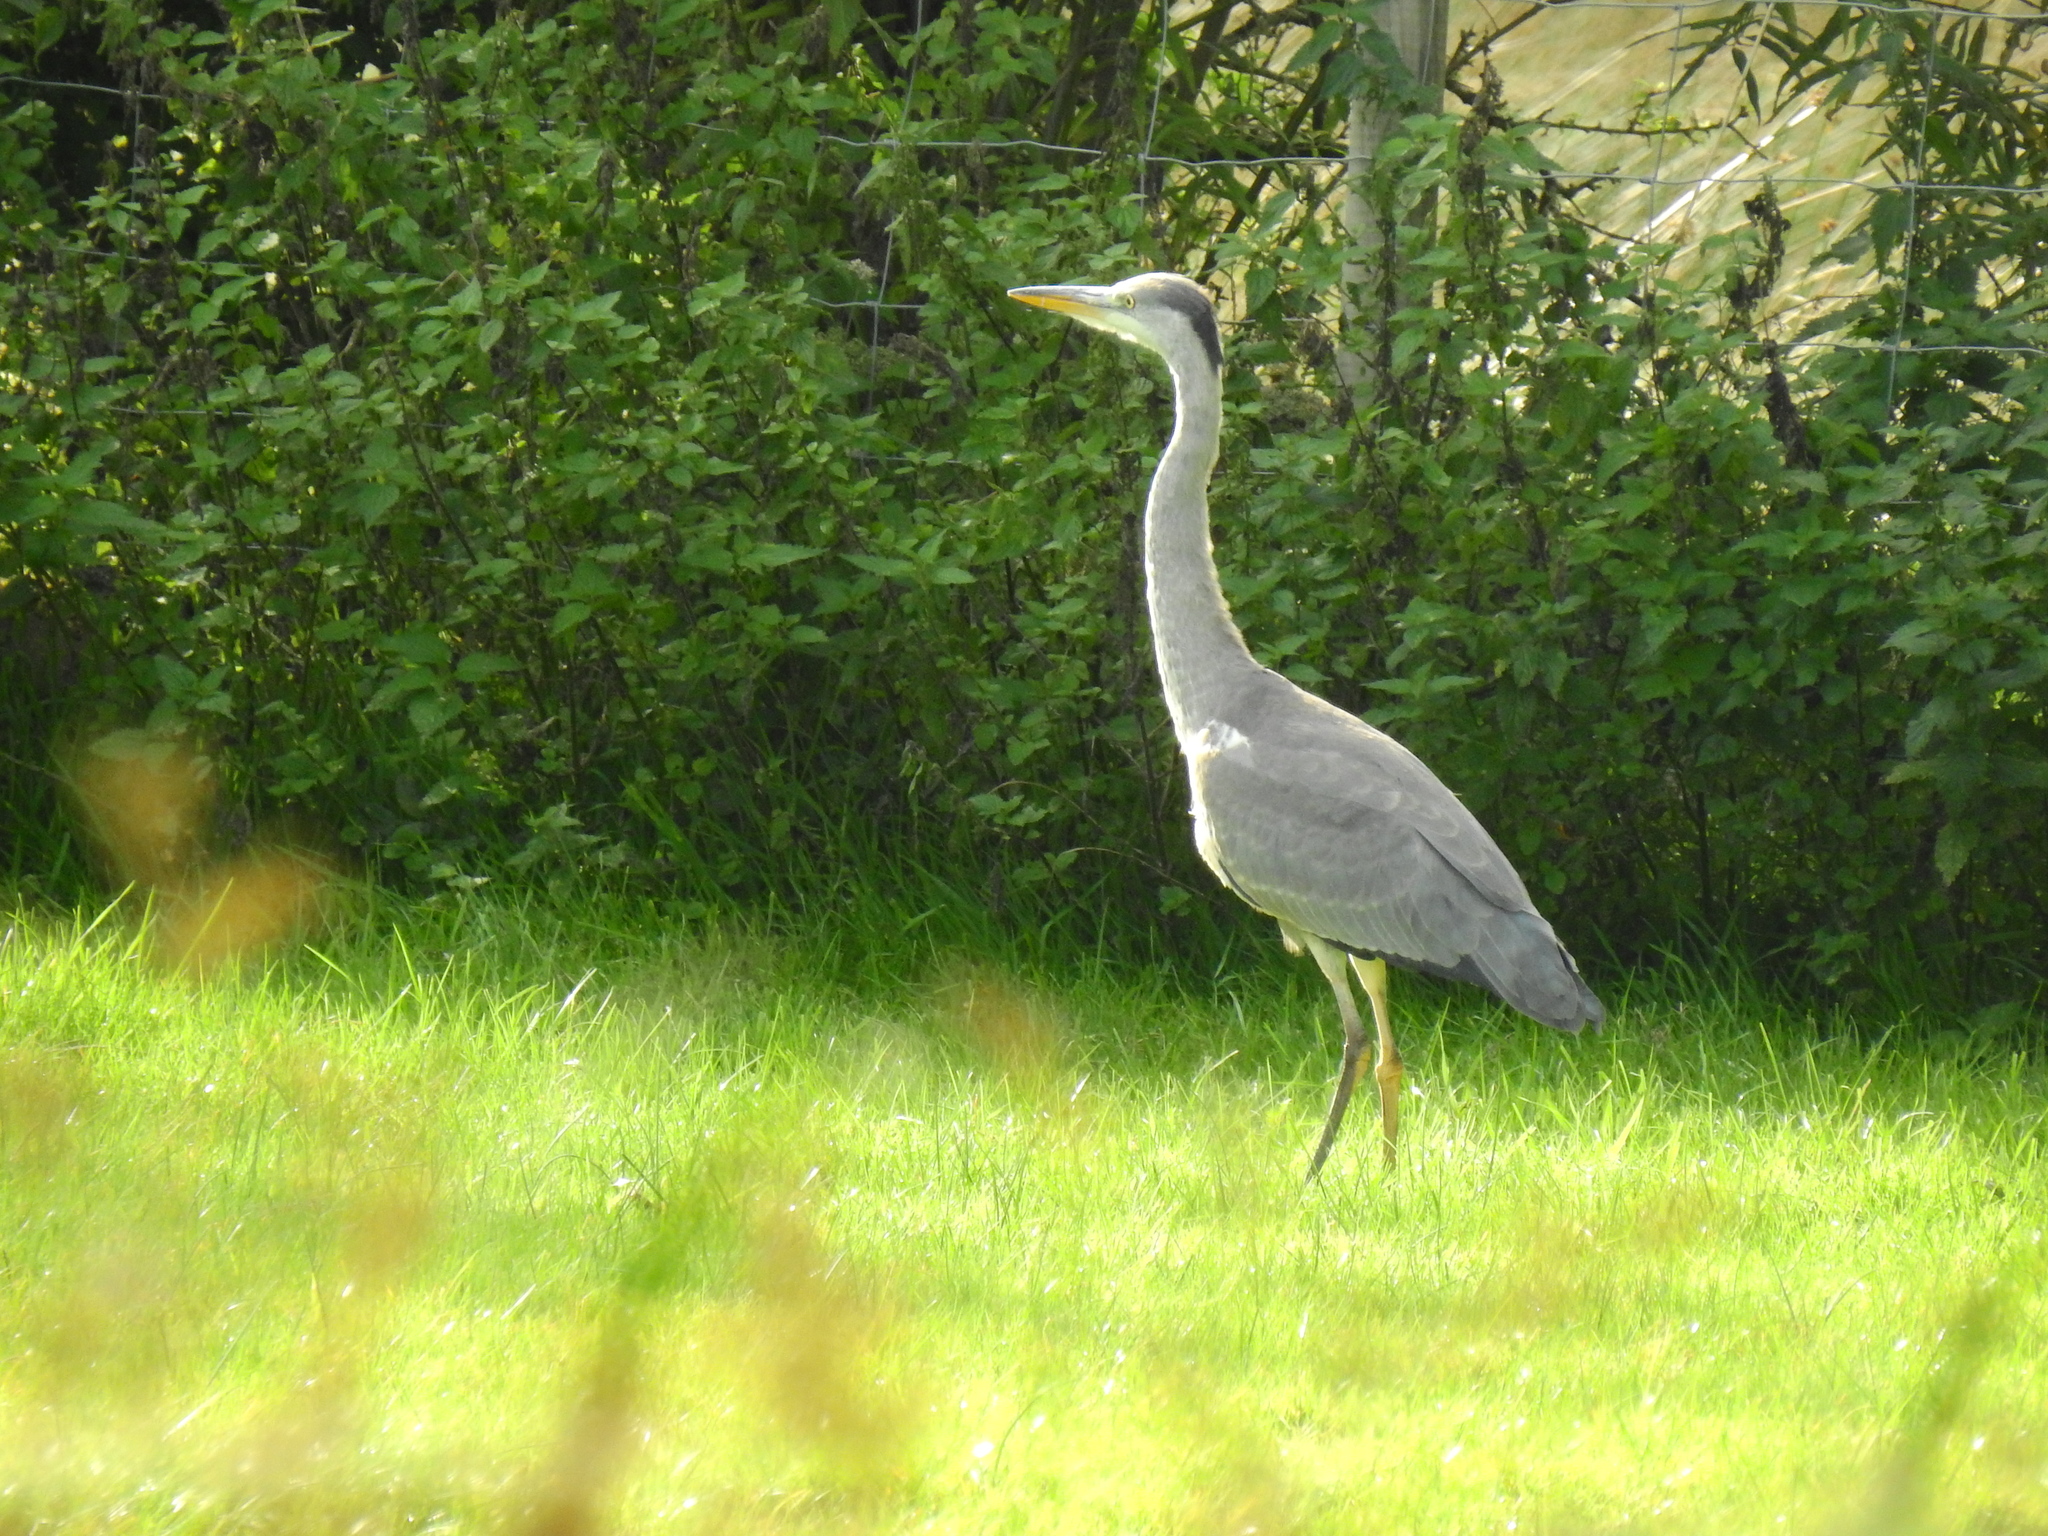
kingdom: Animalia
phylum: Chordata
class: Aves
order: Pelecaniformes
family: Ardeidae
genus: Ardea
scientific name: Ardea cinerea
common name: Grey heron
